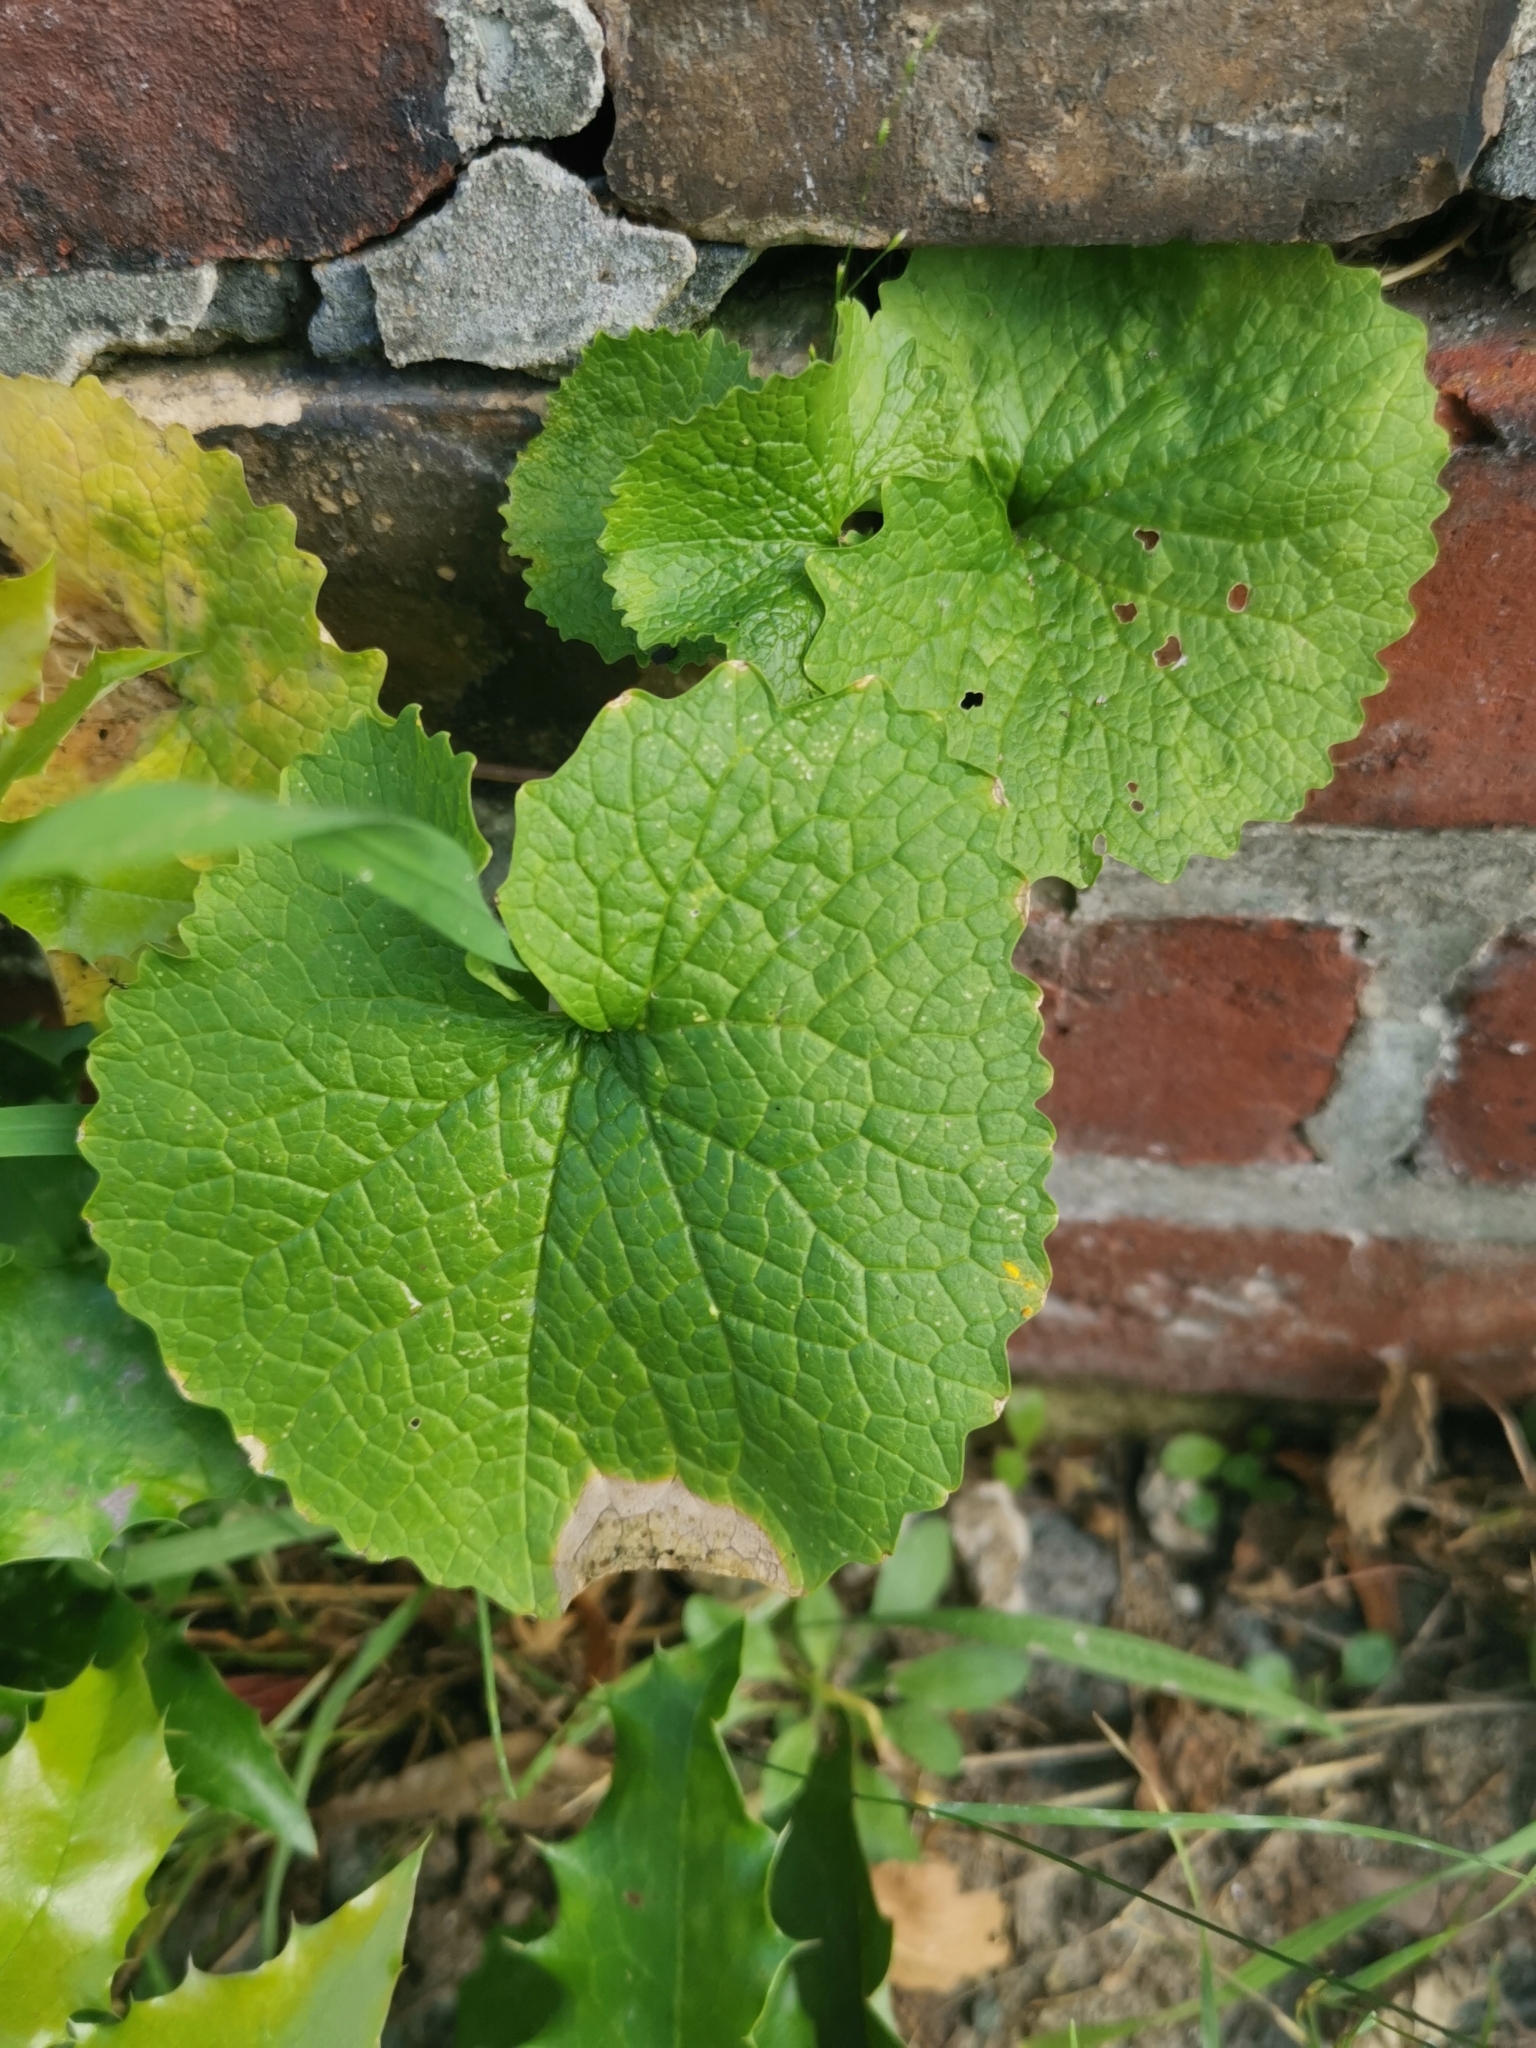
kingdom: Plantae
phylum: Tracheophyta
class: Magnoliopsida
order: Brassicales
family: Brassicaceae
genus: Alliaria
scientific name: Alliaria petiolata
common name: Garlic mustard
